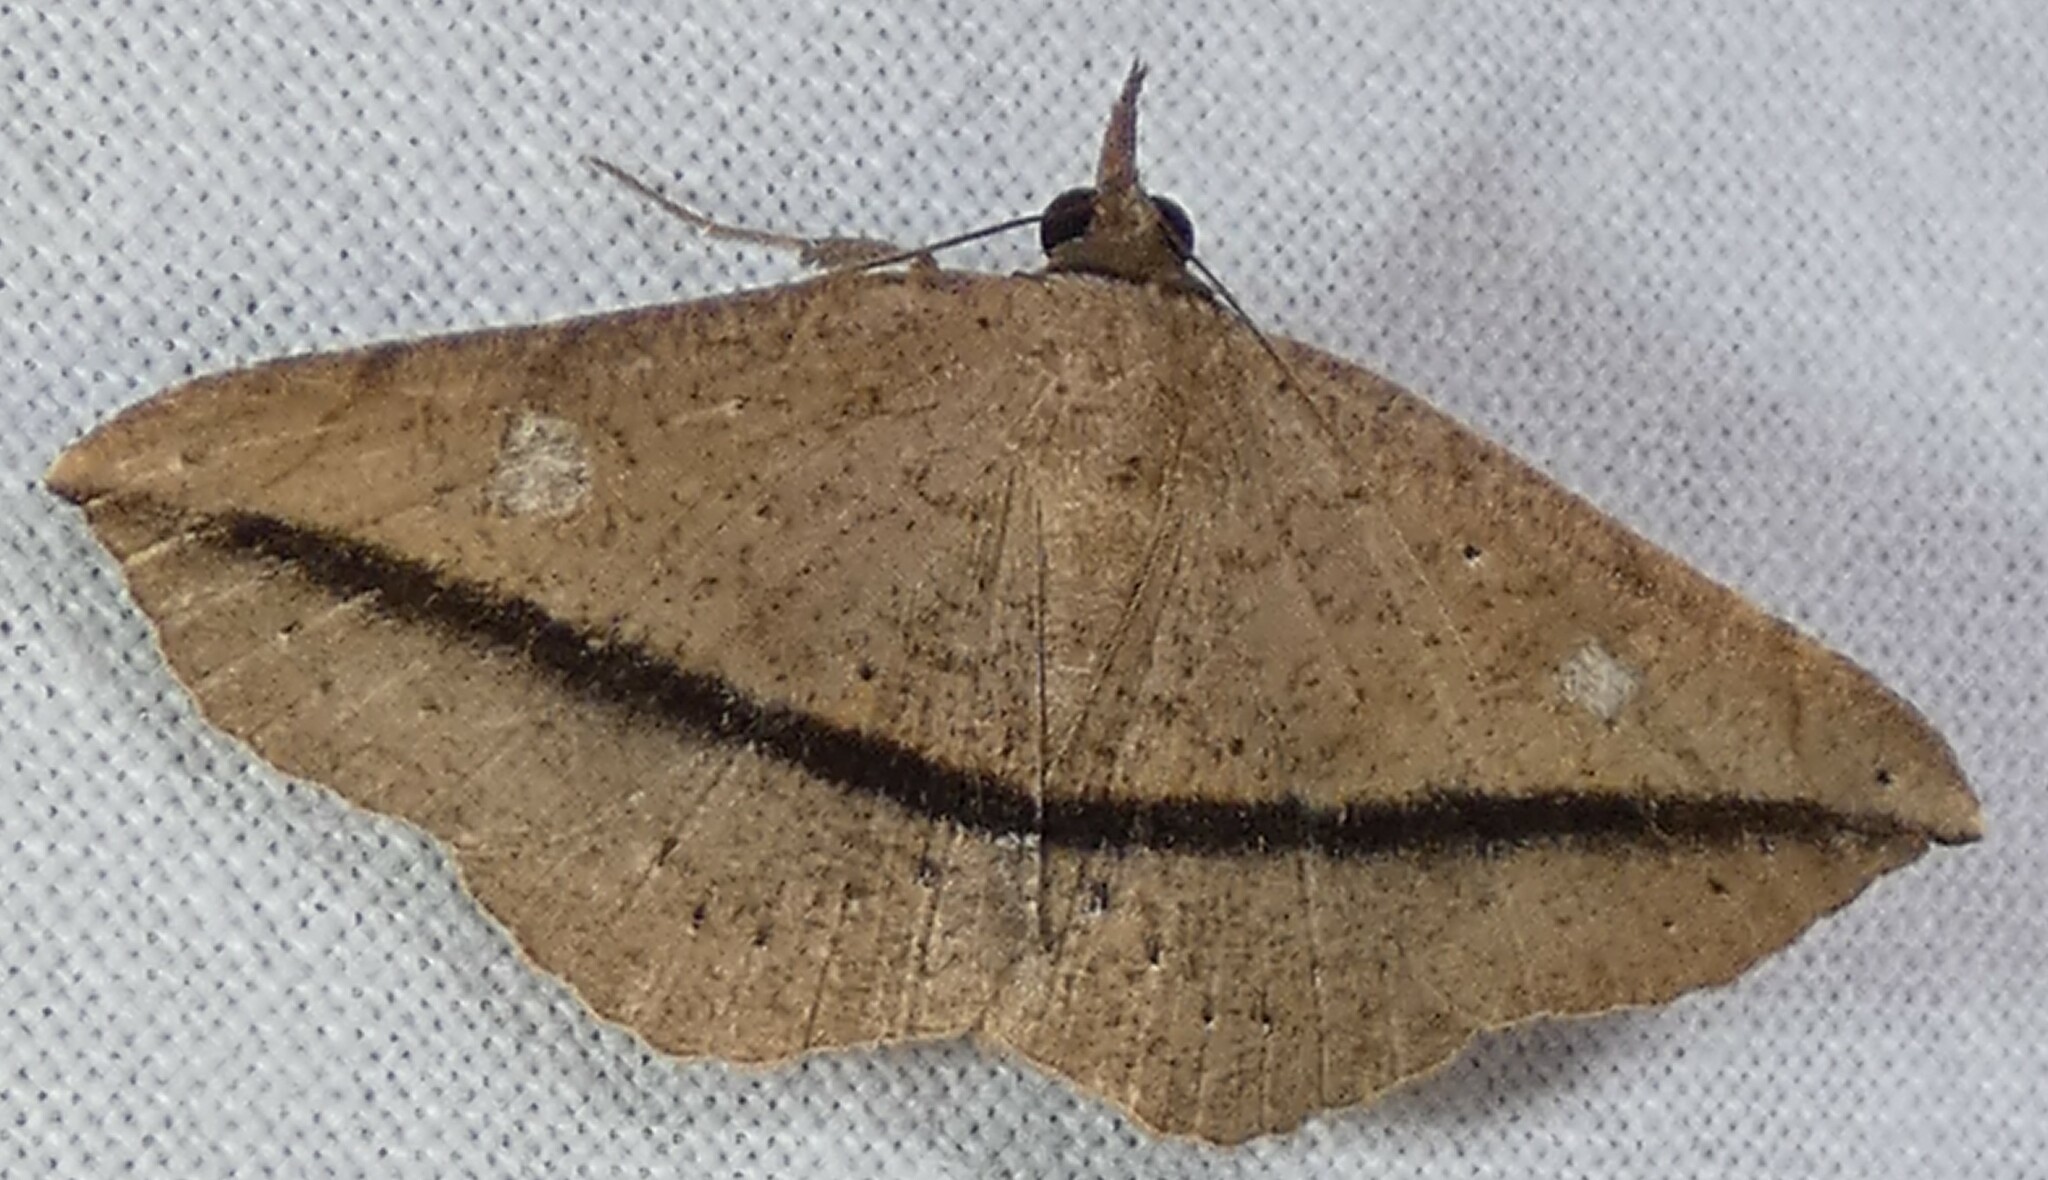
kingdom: Animalia
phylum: Arthropoda
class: Insecta
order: Lepidoptera
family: Erebidae
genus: Metallata
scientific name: Metallata absumens
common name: Brown leaf mimic
